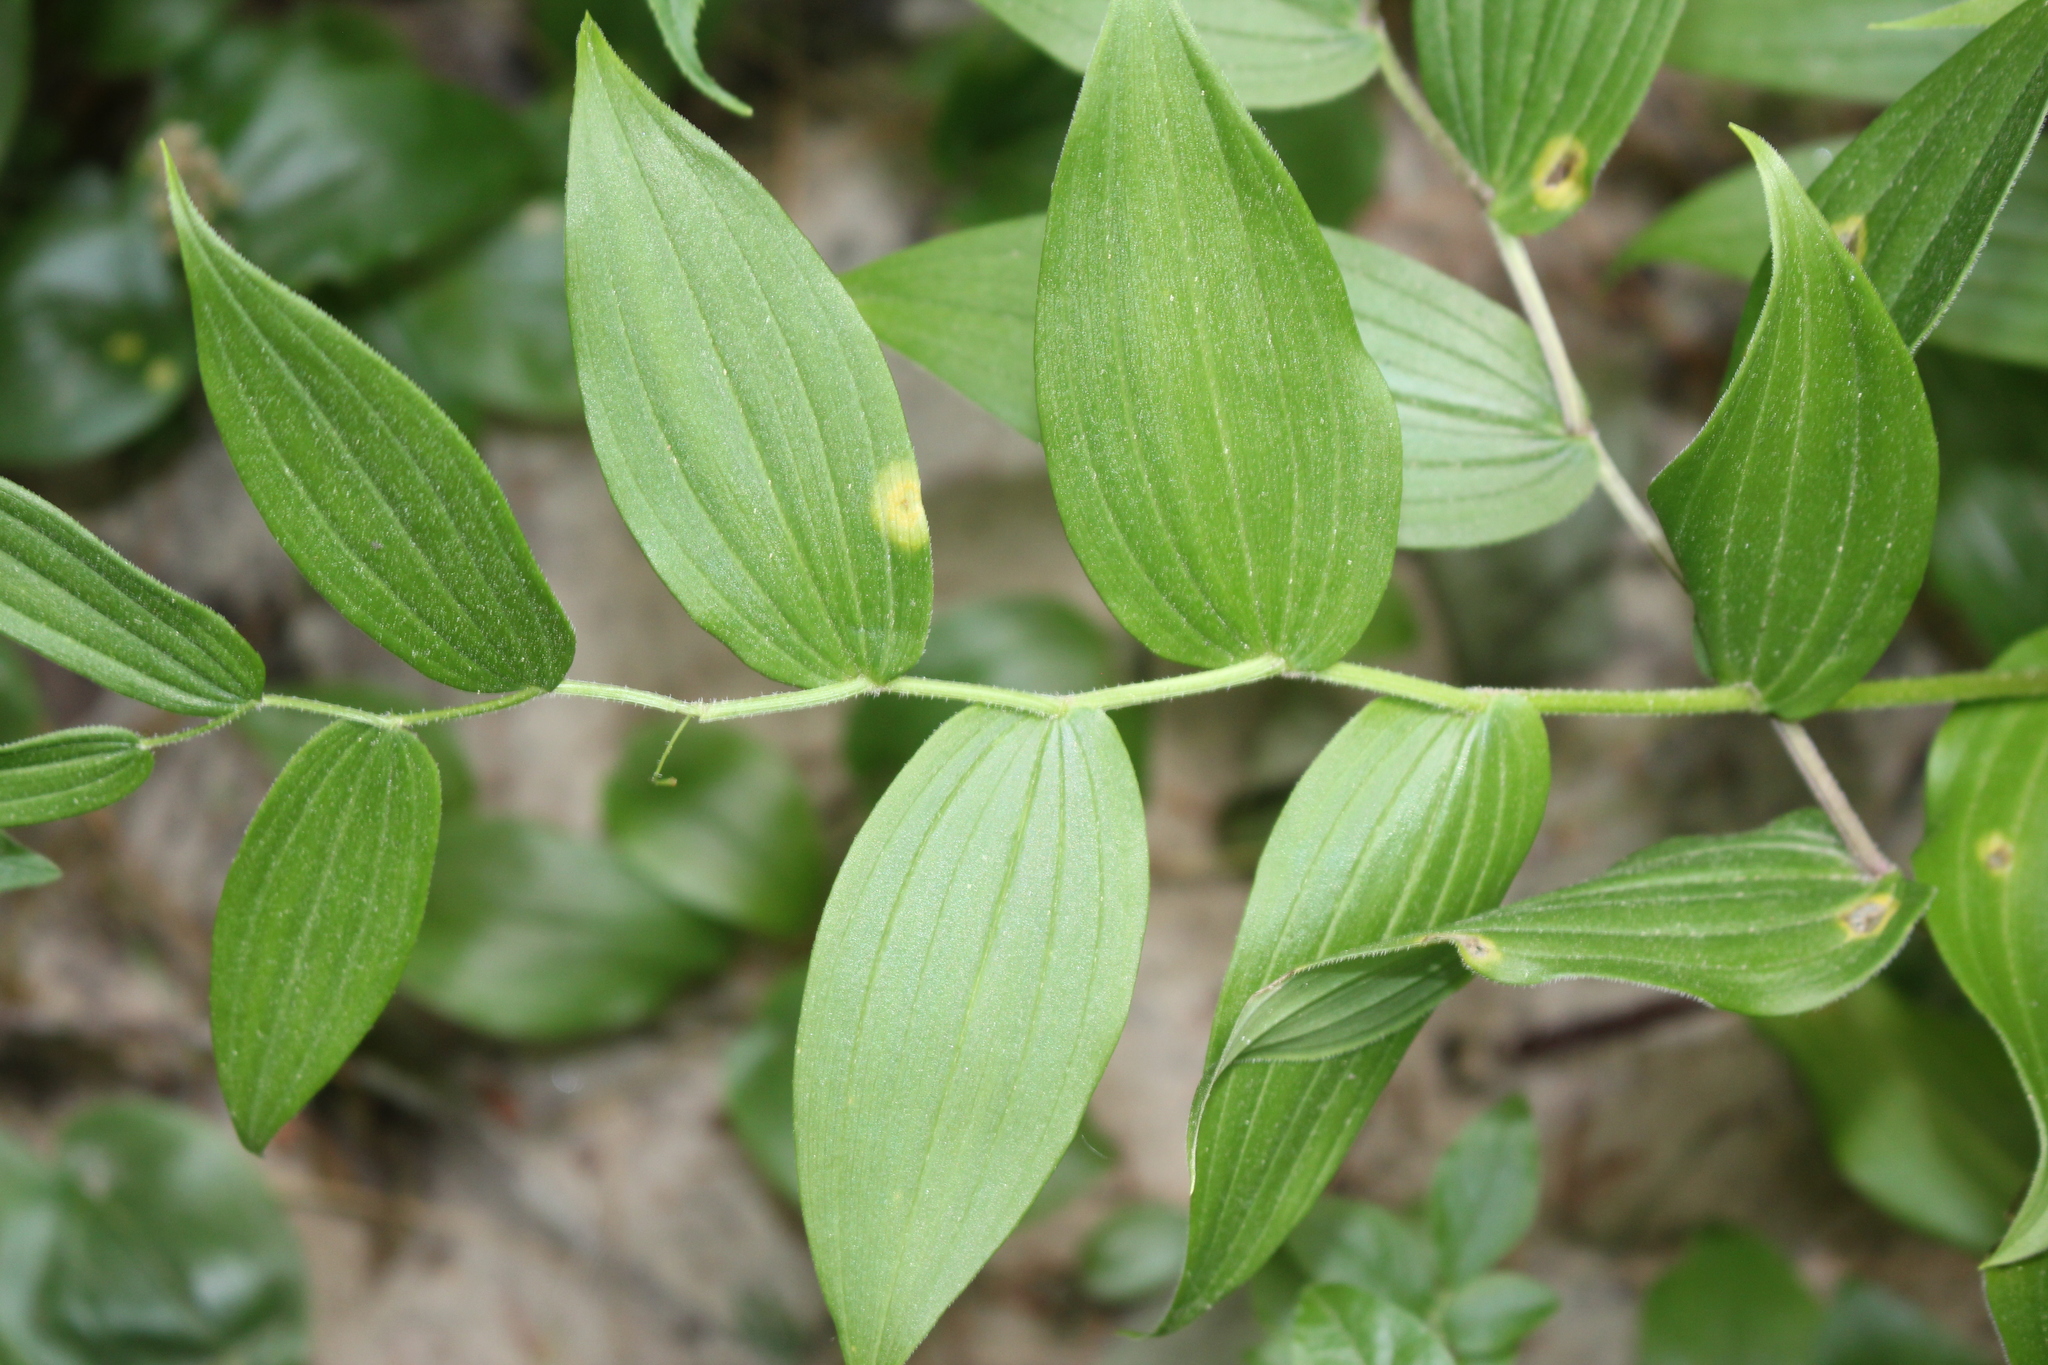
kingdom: Plantae
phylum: Tracheophyta
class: Liliopsida
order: Liliales
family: Liliaceae
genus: Streptopus
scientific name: Streptopus lanceolatus
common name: Rose mandarin
